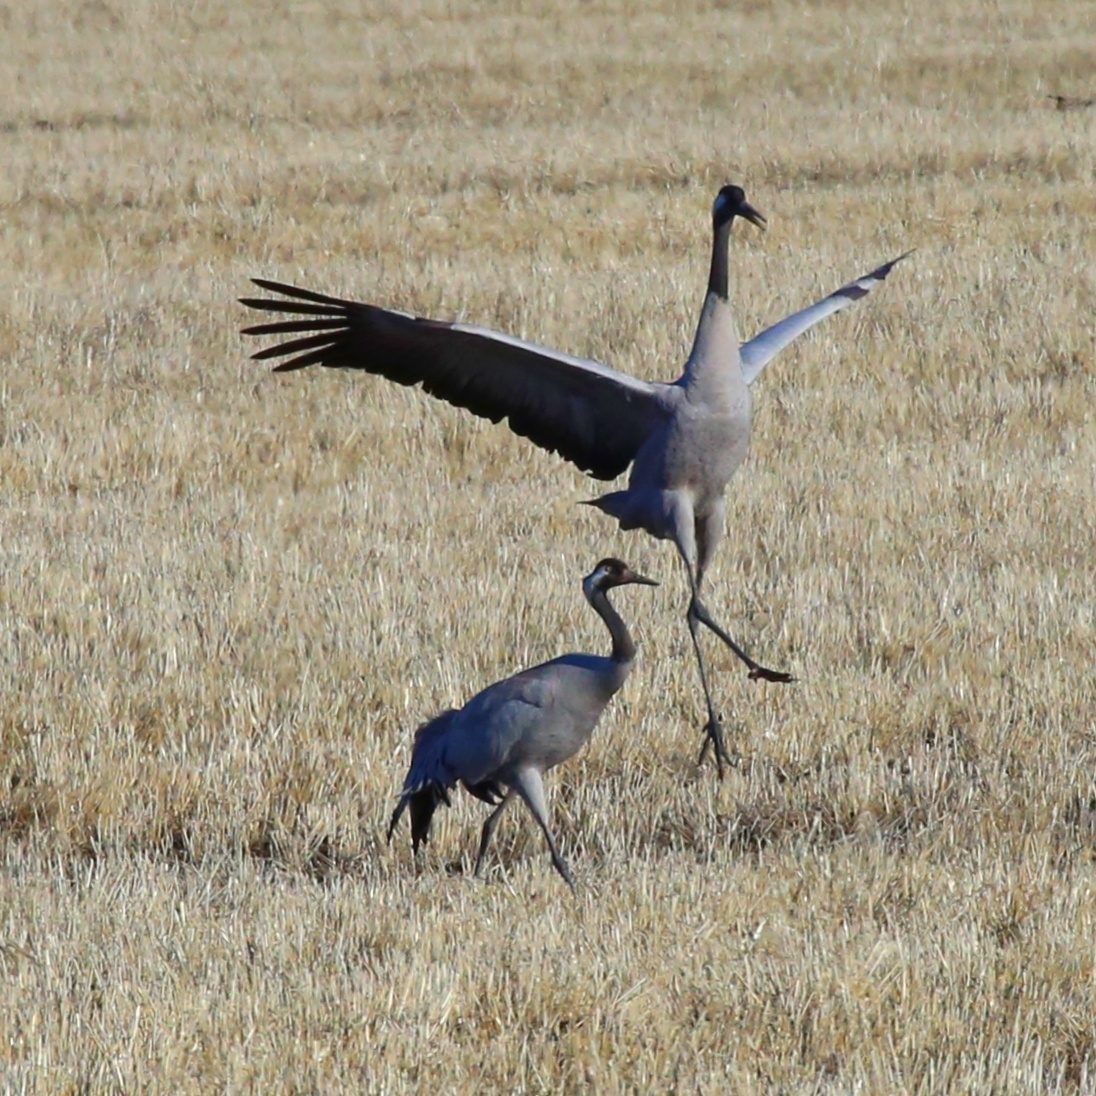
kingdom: Animalia
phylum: Chordata
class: Aves
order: Gruiformes
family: Gruidae
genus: Grus
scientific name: Grus grus
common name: Common crane
